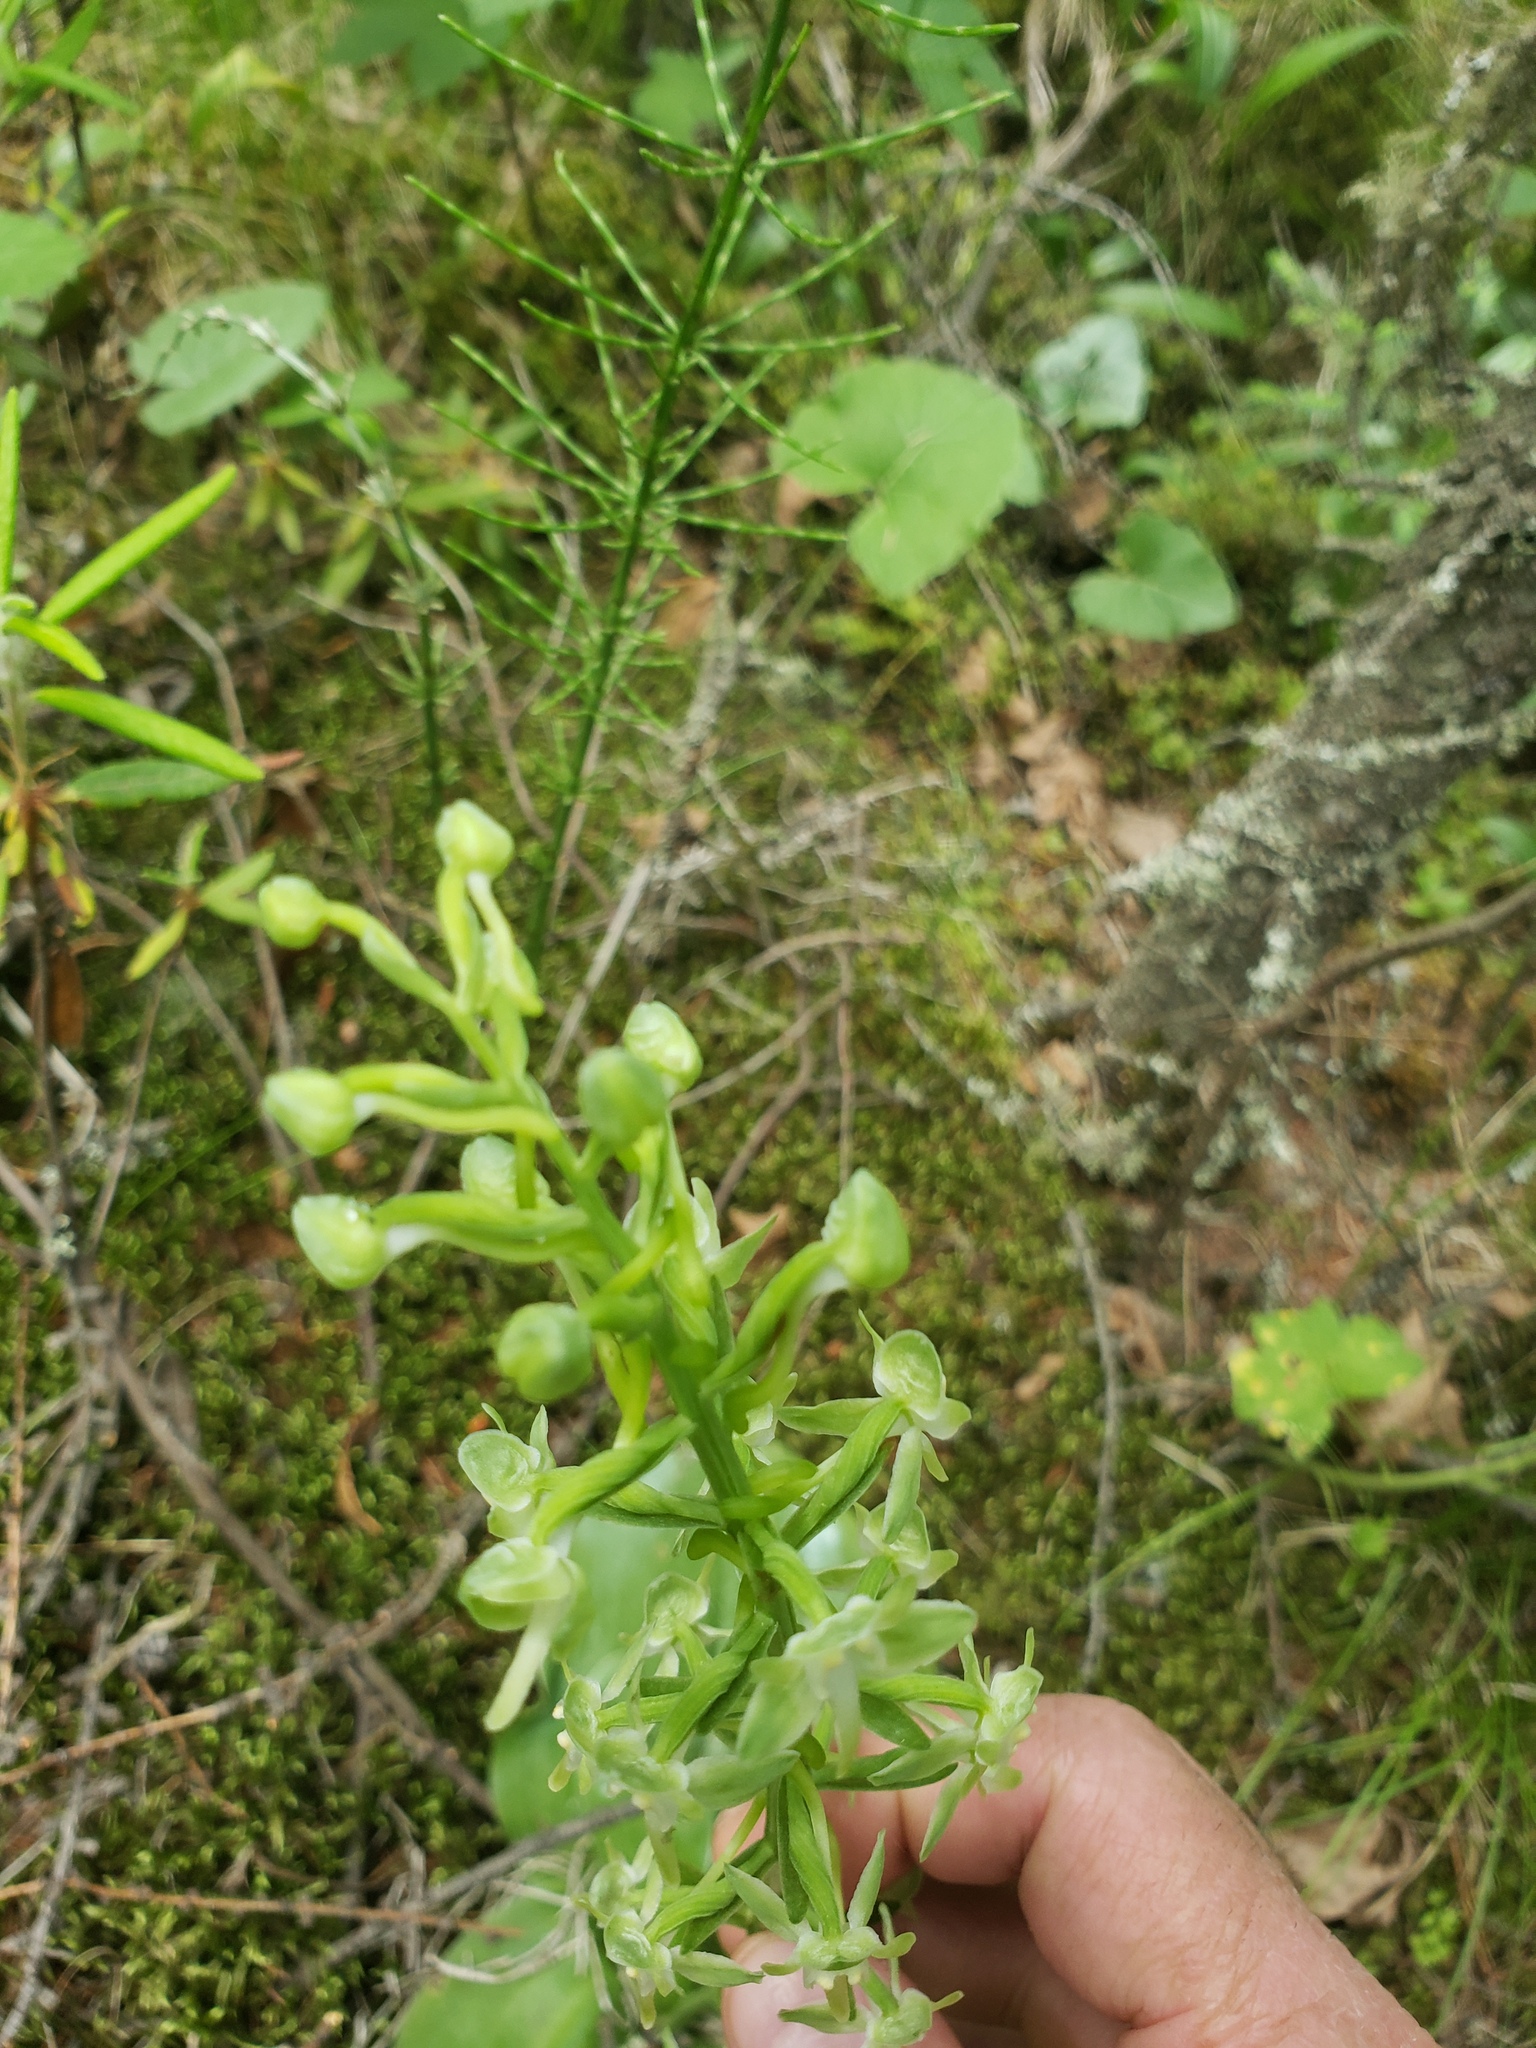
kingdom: Plantae
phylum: Tracheophyta
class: Liliopsida
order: Asparagales
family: Orchidaceae
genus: Platanthera
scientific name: Platanthera orbiculata
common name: Large round-leaved orchid
